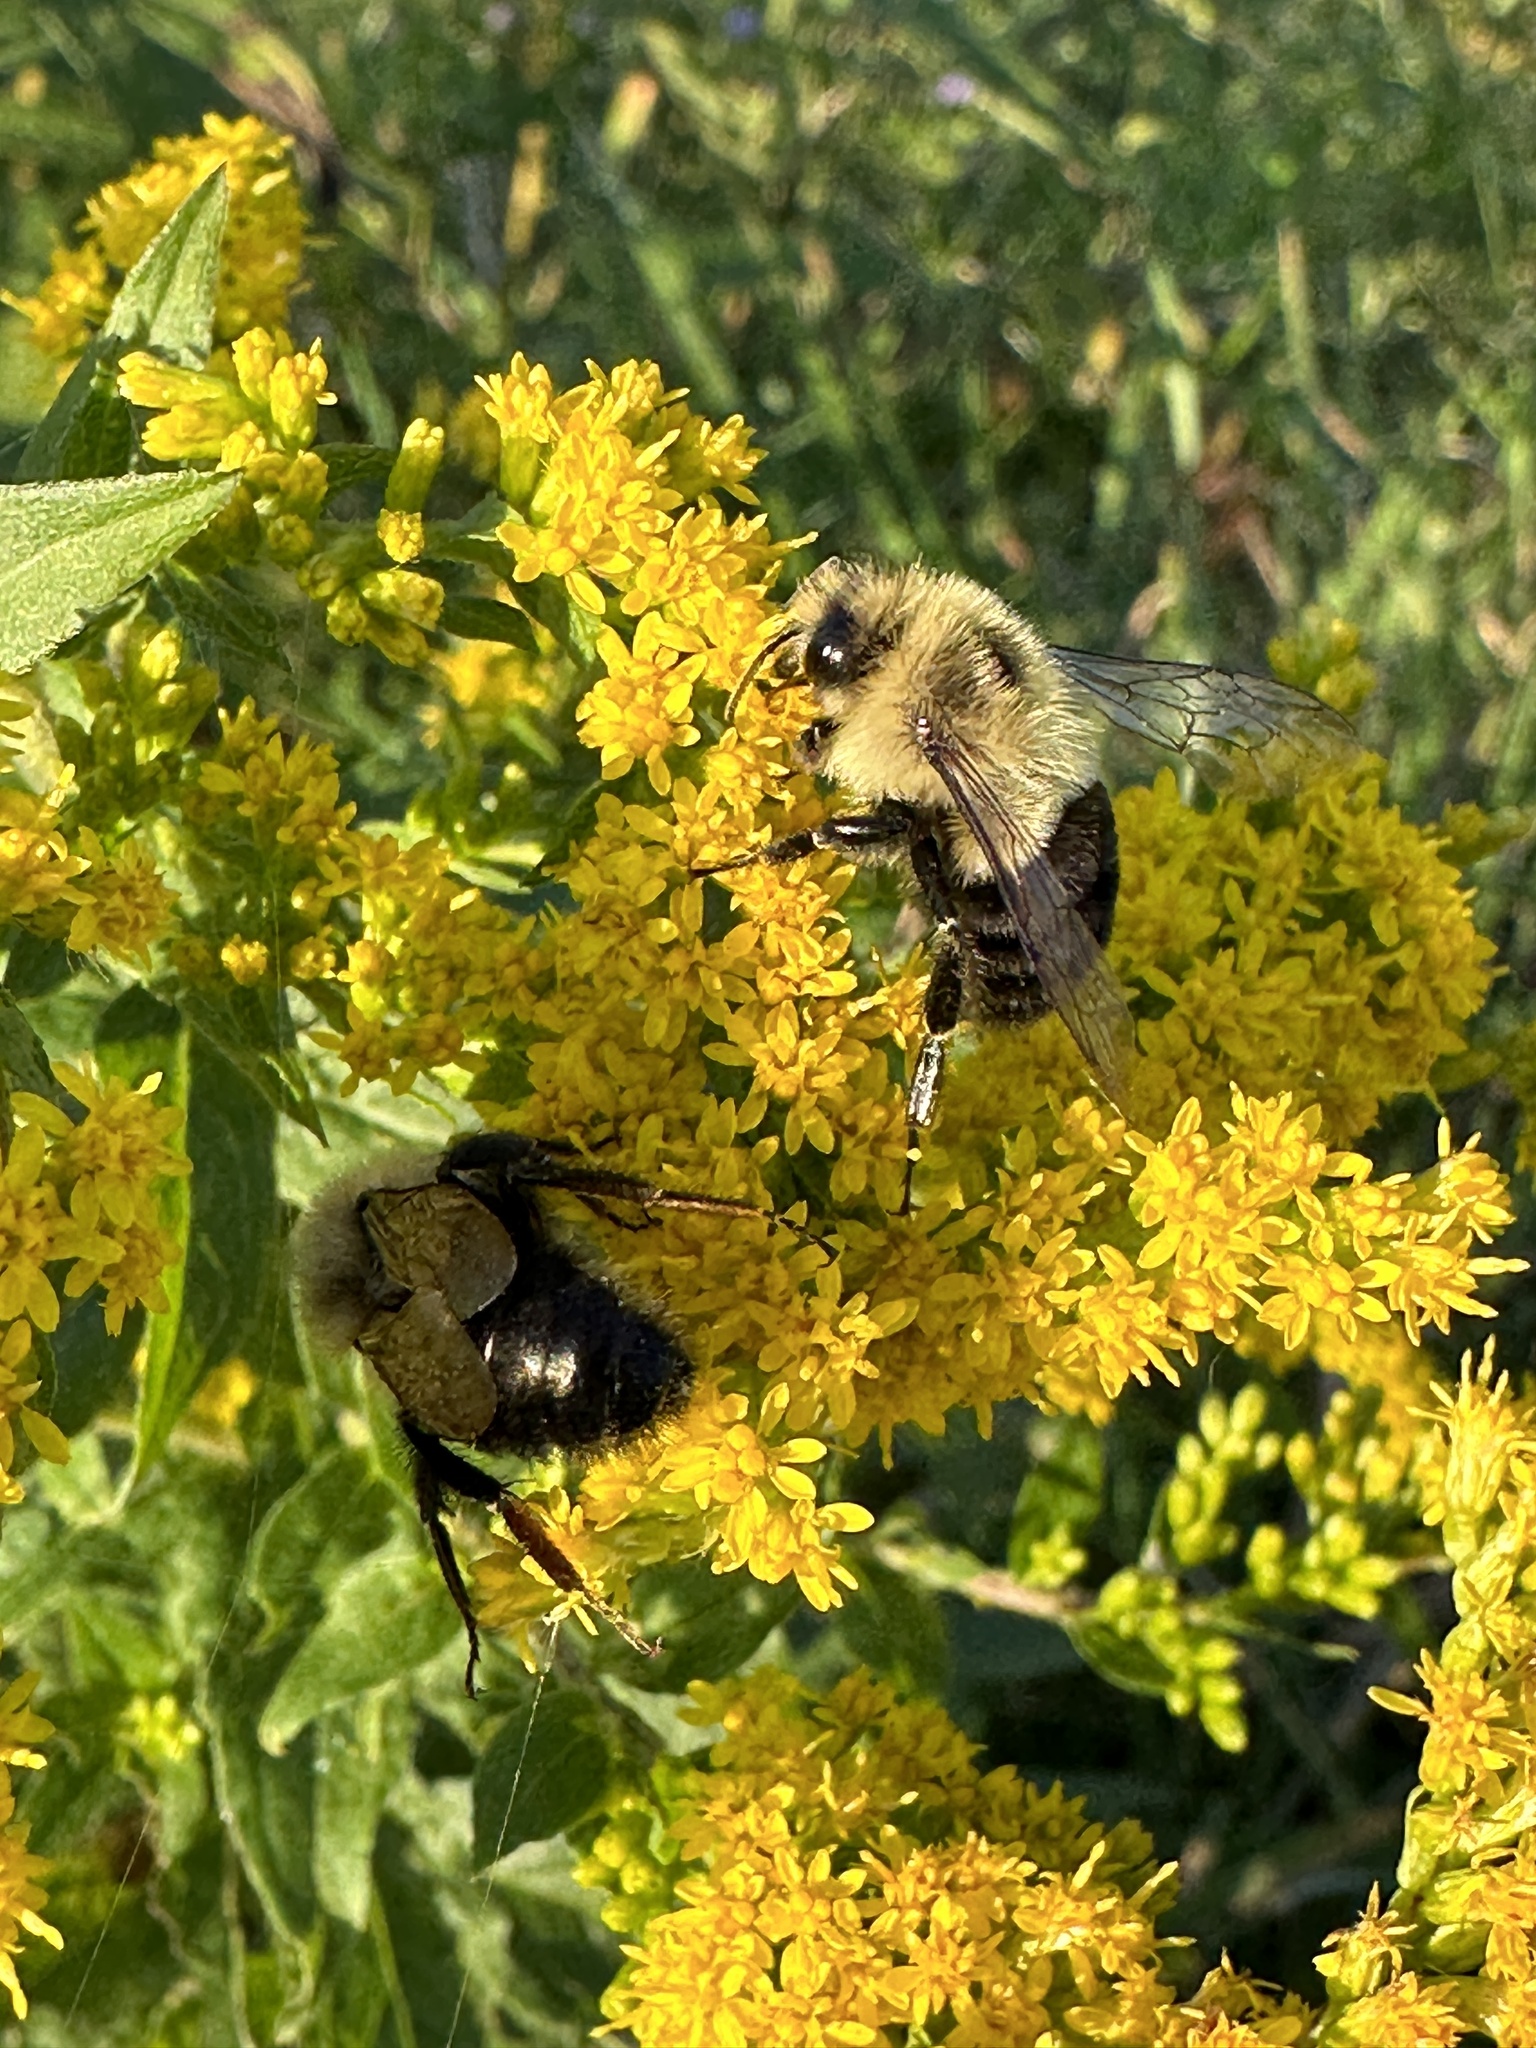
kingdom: Animalia
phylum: Arthropoda
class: Insecta
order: Hymenoptera
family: Apidae
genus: Bombus
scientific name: Bombus impatiens
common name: Common eastern bumble bee
